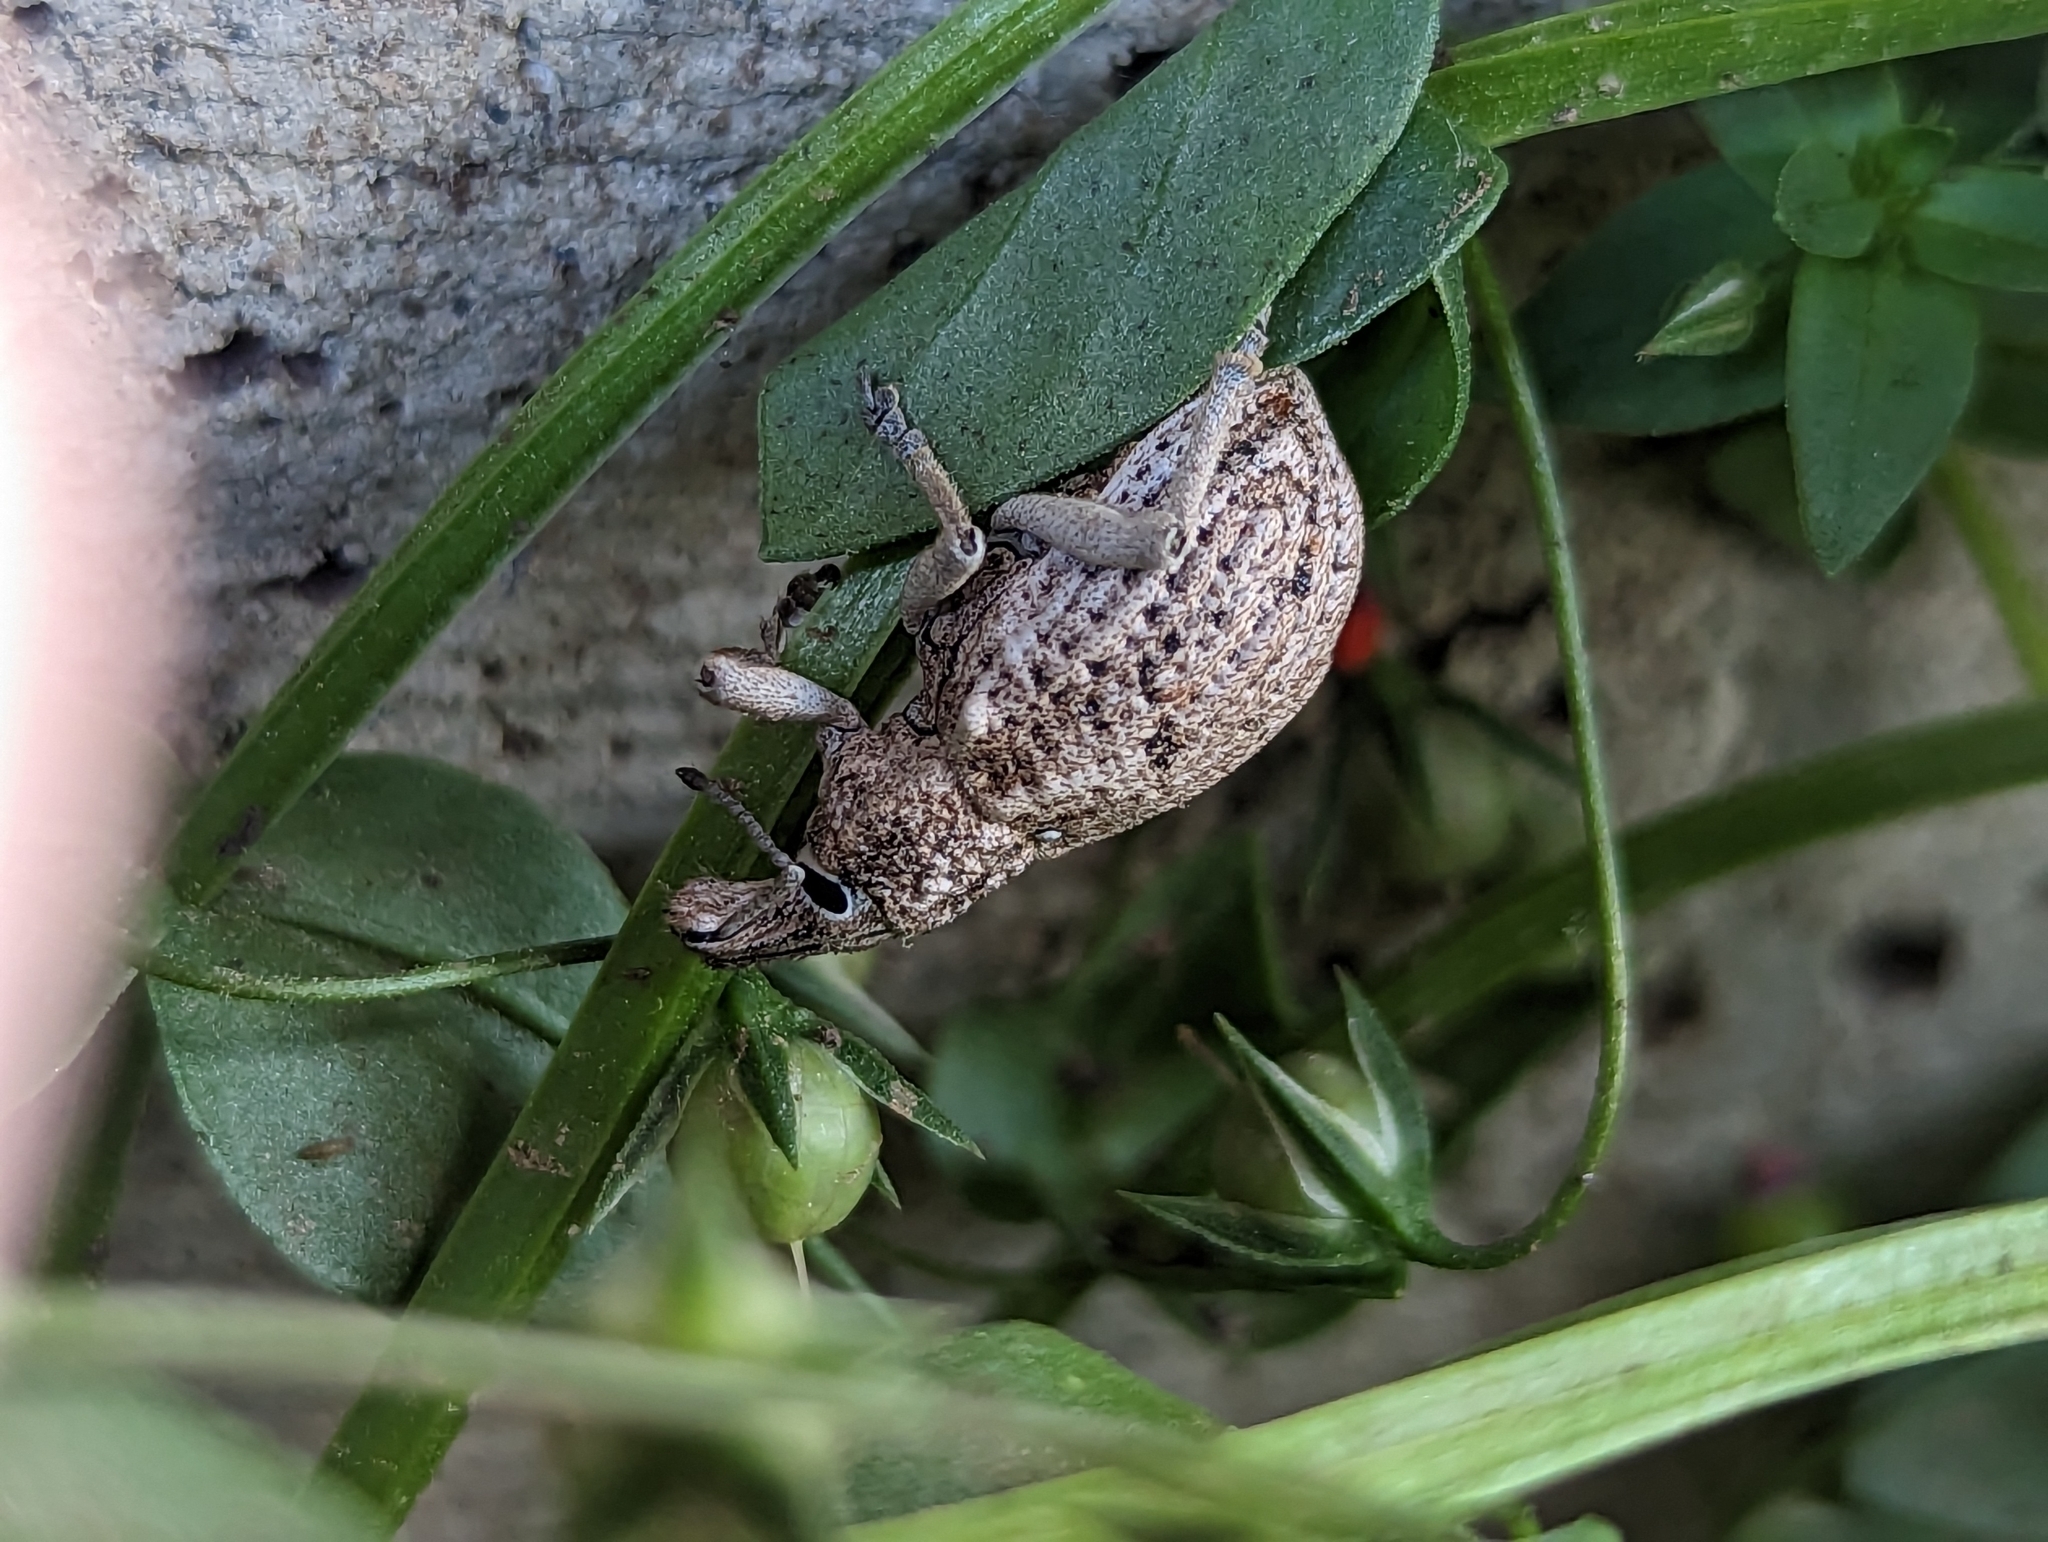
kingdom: Animalia
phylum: Arthropoda
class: Insecta
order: Coleoptera
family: Curculionidae
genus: Leptopius
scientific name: Leptopius robustus
